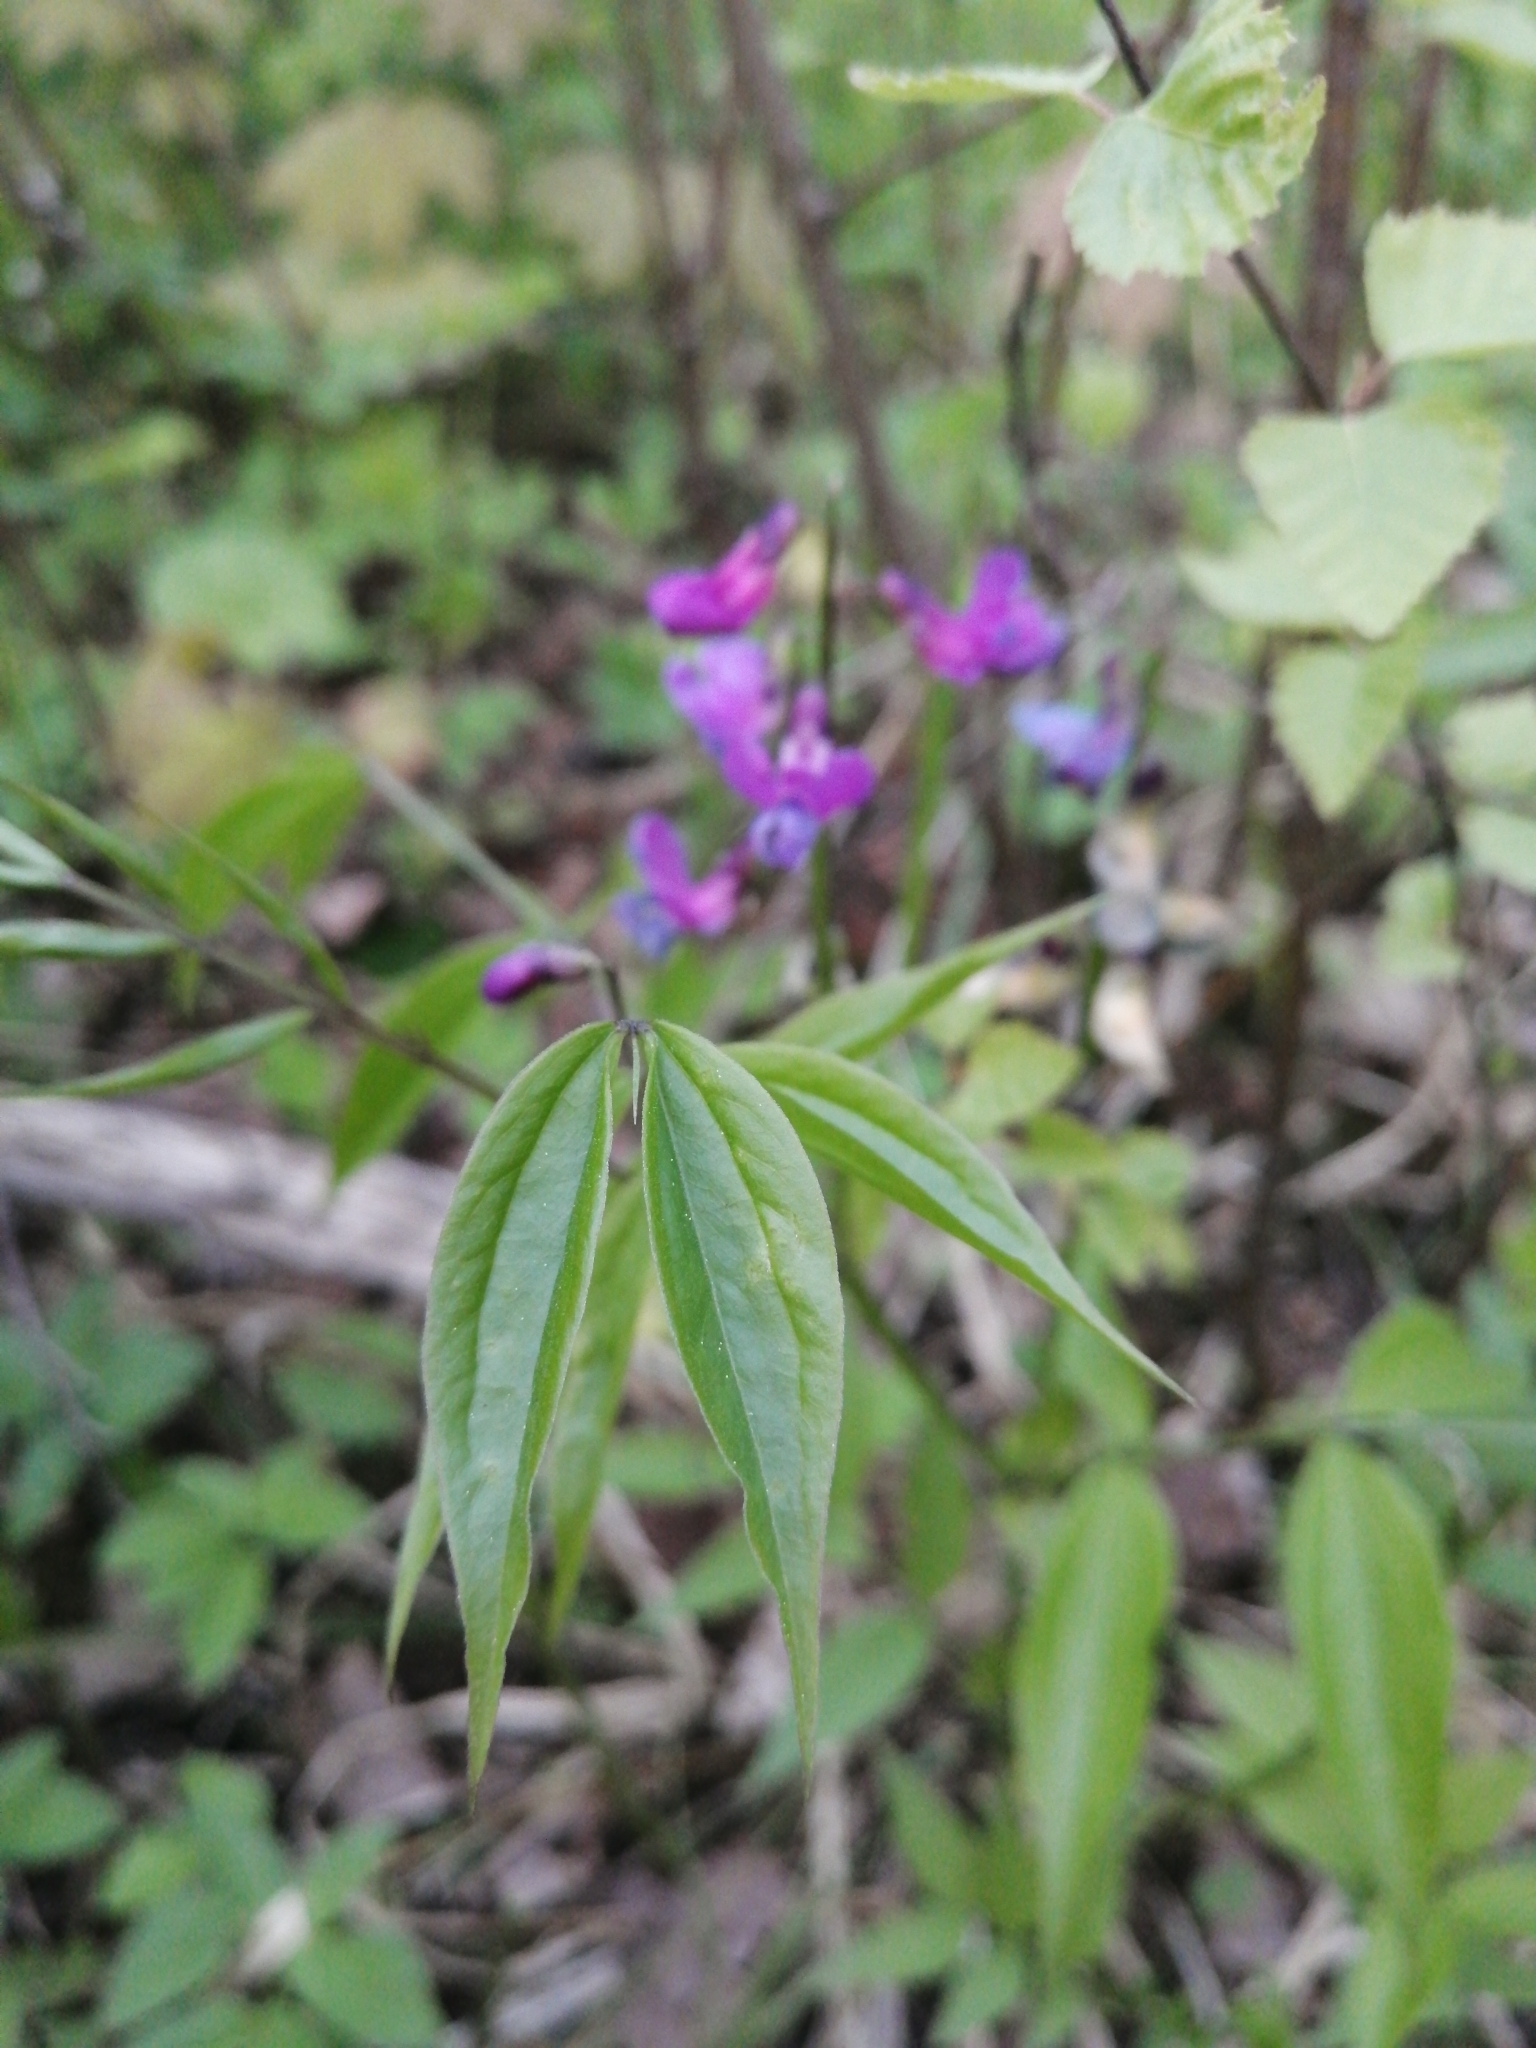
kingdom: Plantae
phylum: Tracheophyta
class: Magnoliopsida
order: Fabales
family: Fabaceae
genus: Lathyrus
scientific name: Lathyrus vernus
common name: Spring pea
